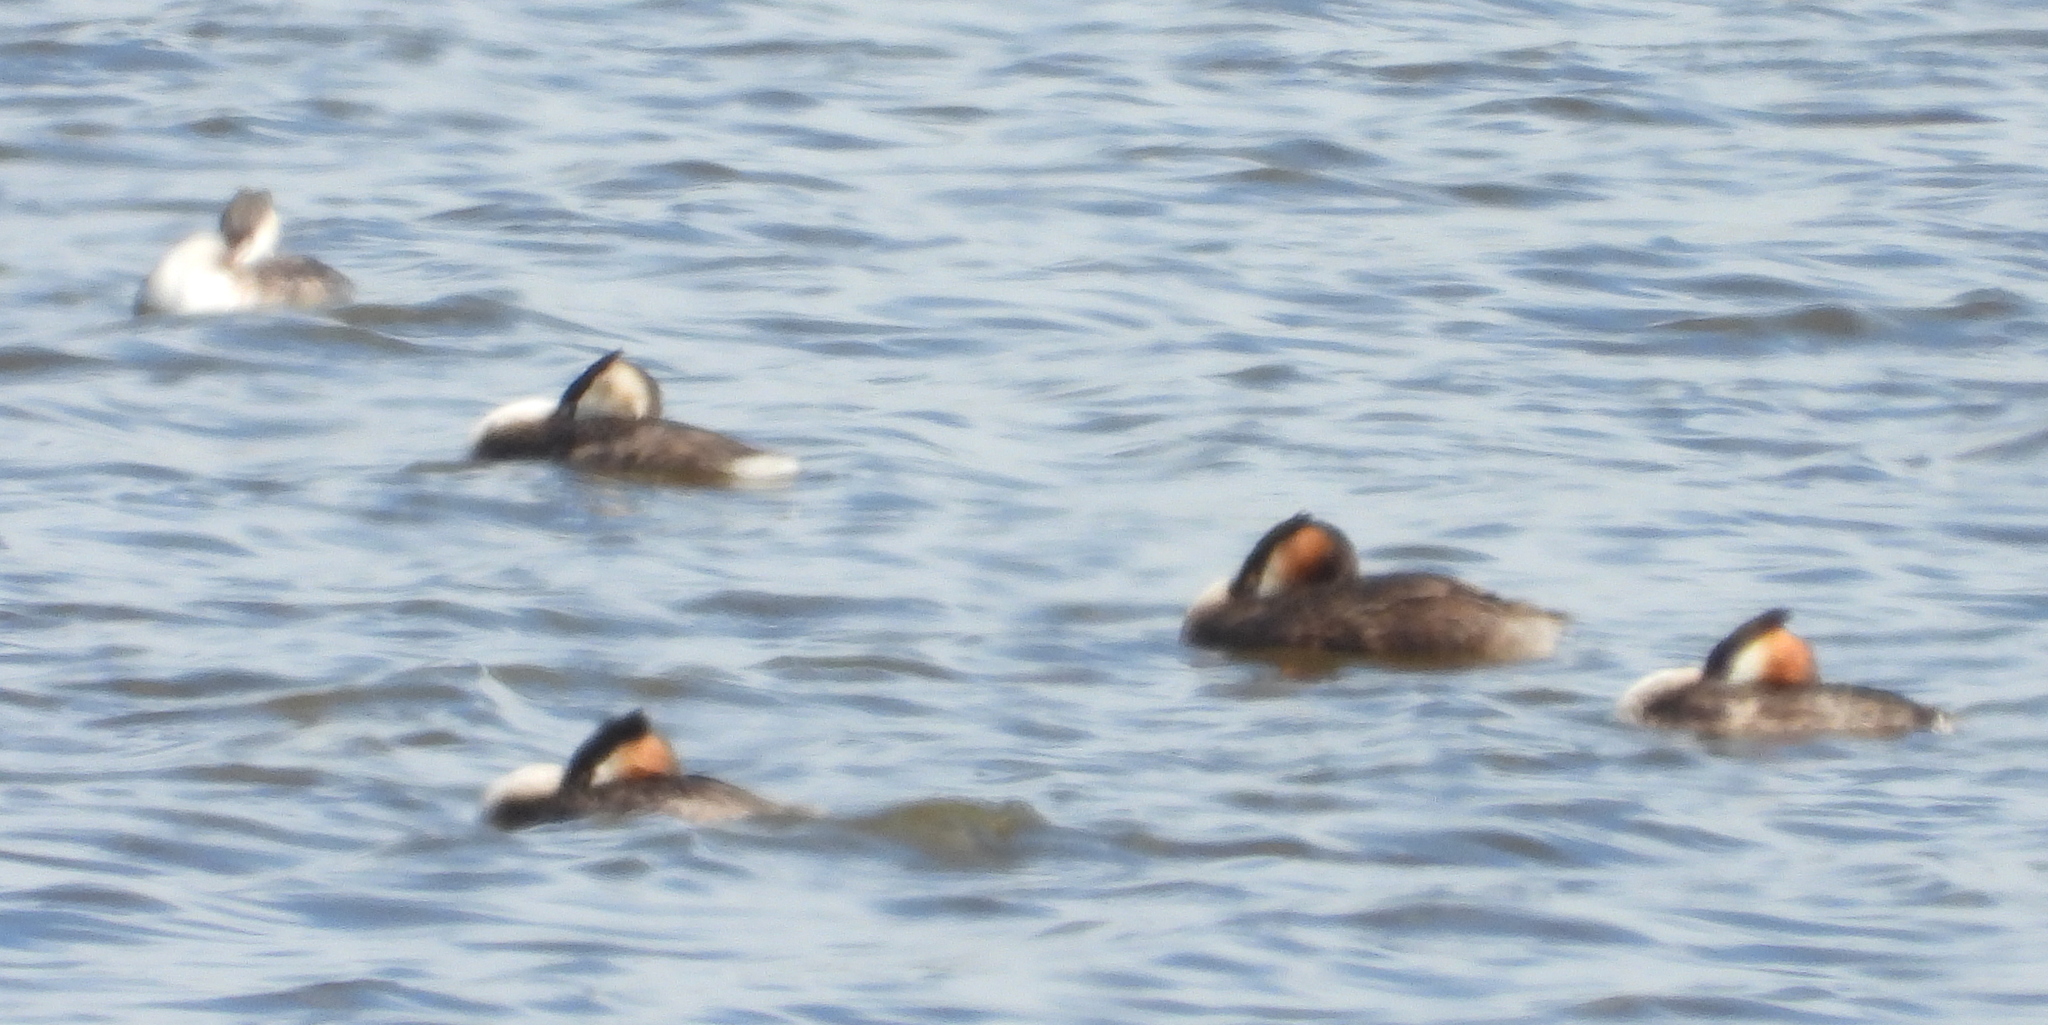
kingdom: Animalia
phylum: Chordata
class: Aves
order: Podicipediformes
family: Podicipedidae
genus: Podiceps
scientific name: Podiceps cristatus
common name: Great crested grebe
